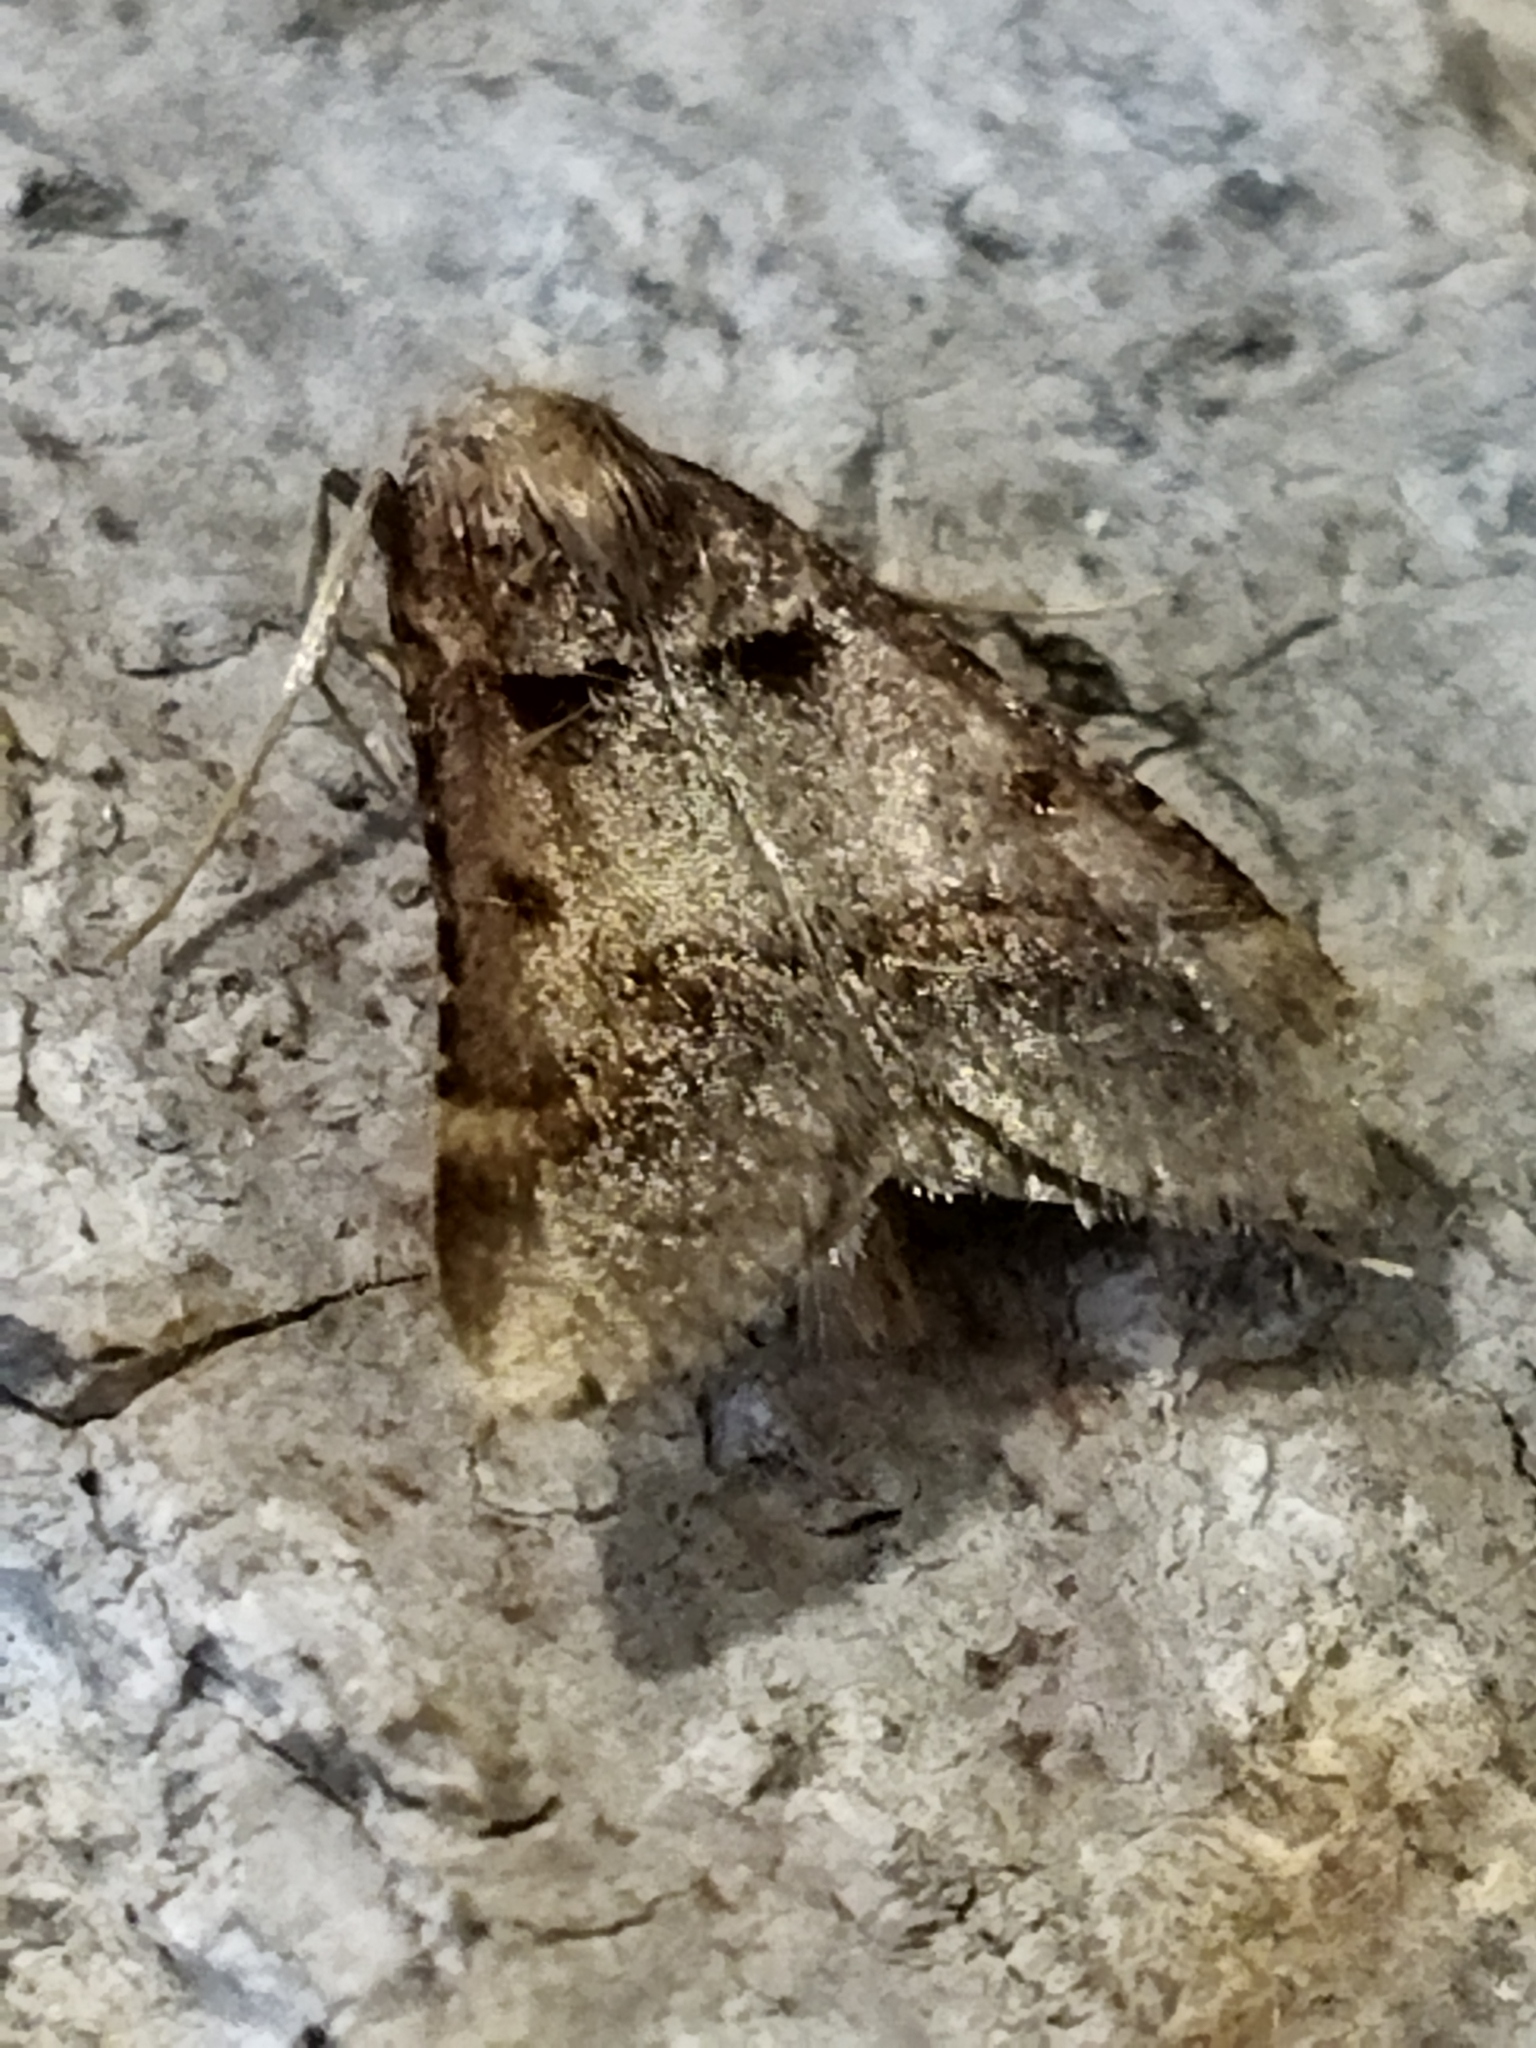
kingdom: Animalia
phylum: Arthropoda
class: Insecta
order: Lepidoptera
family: Pyralidae
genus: Stemmatophora
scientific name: Stemmatophora brunnealis
